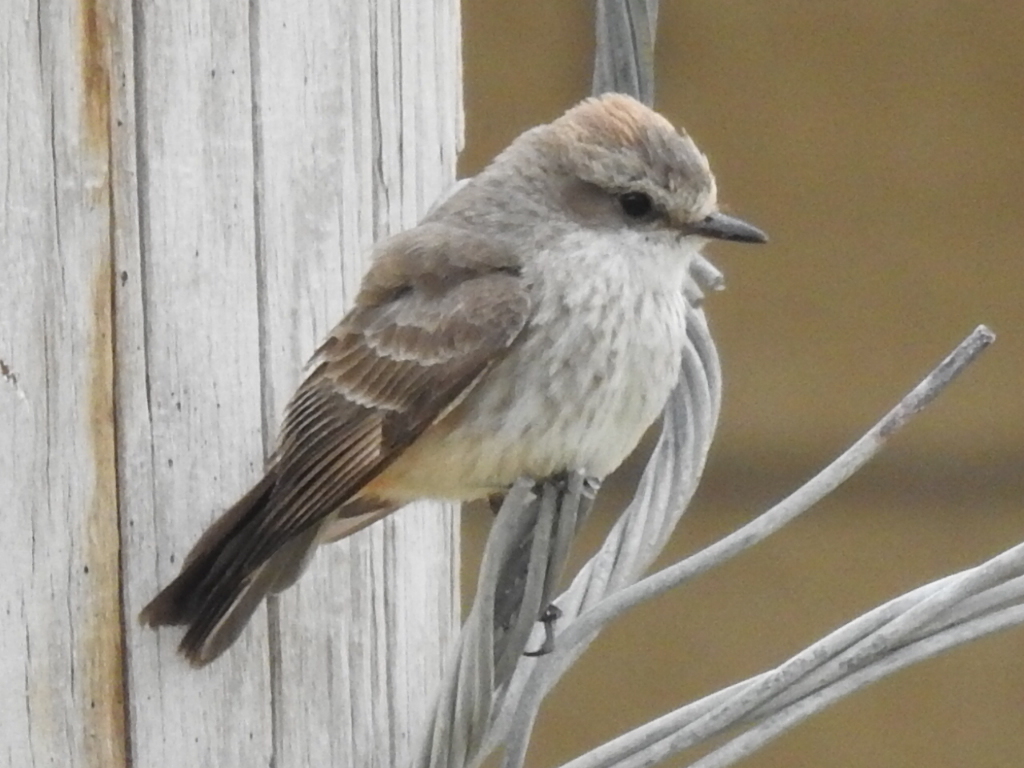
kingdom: Animalia
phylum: Chordata
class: Aves
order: Passeriformes
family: Tyrannidae
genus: Pyrocephalus
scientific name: Pyrocephalus rubinus
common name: Vermilion flycatcher
